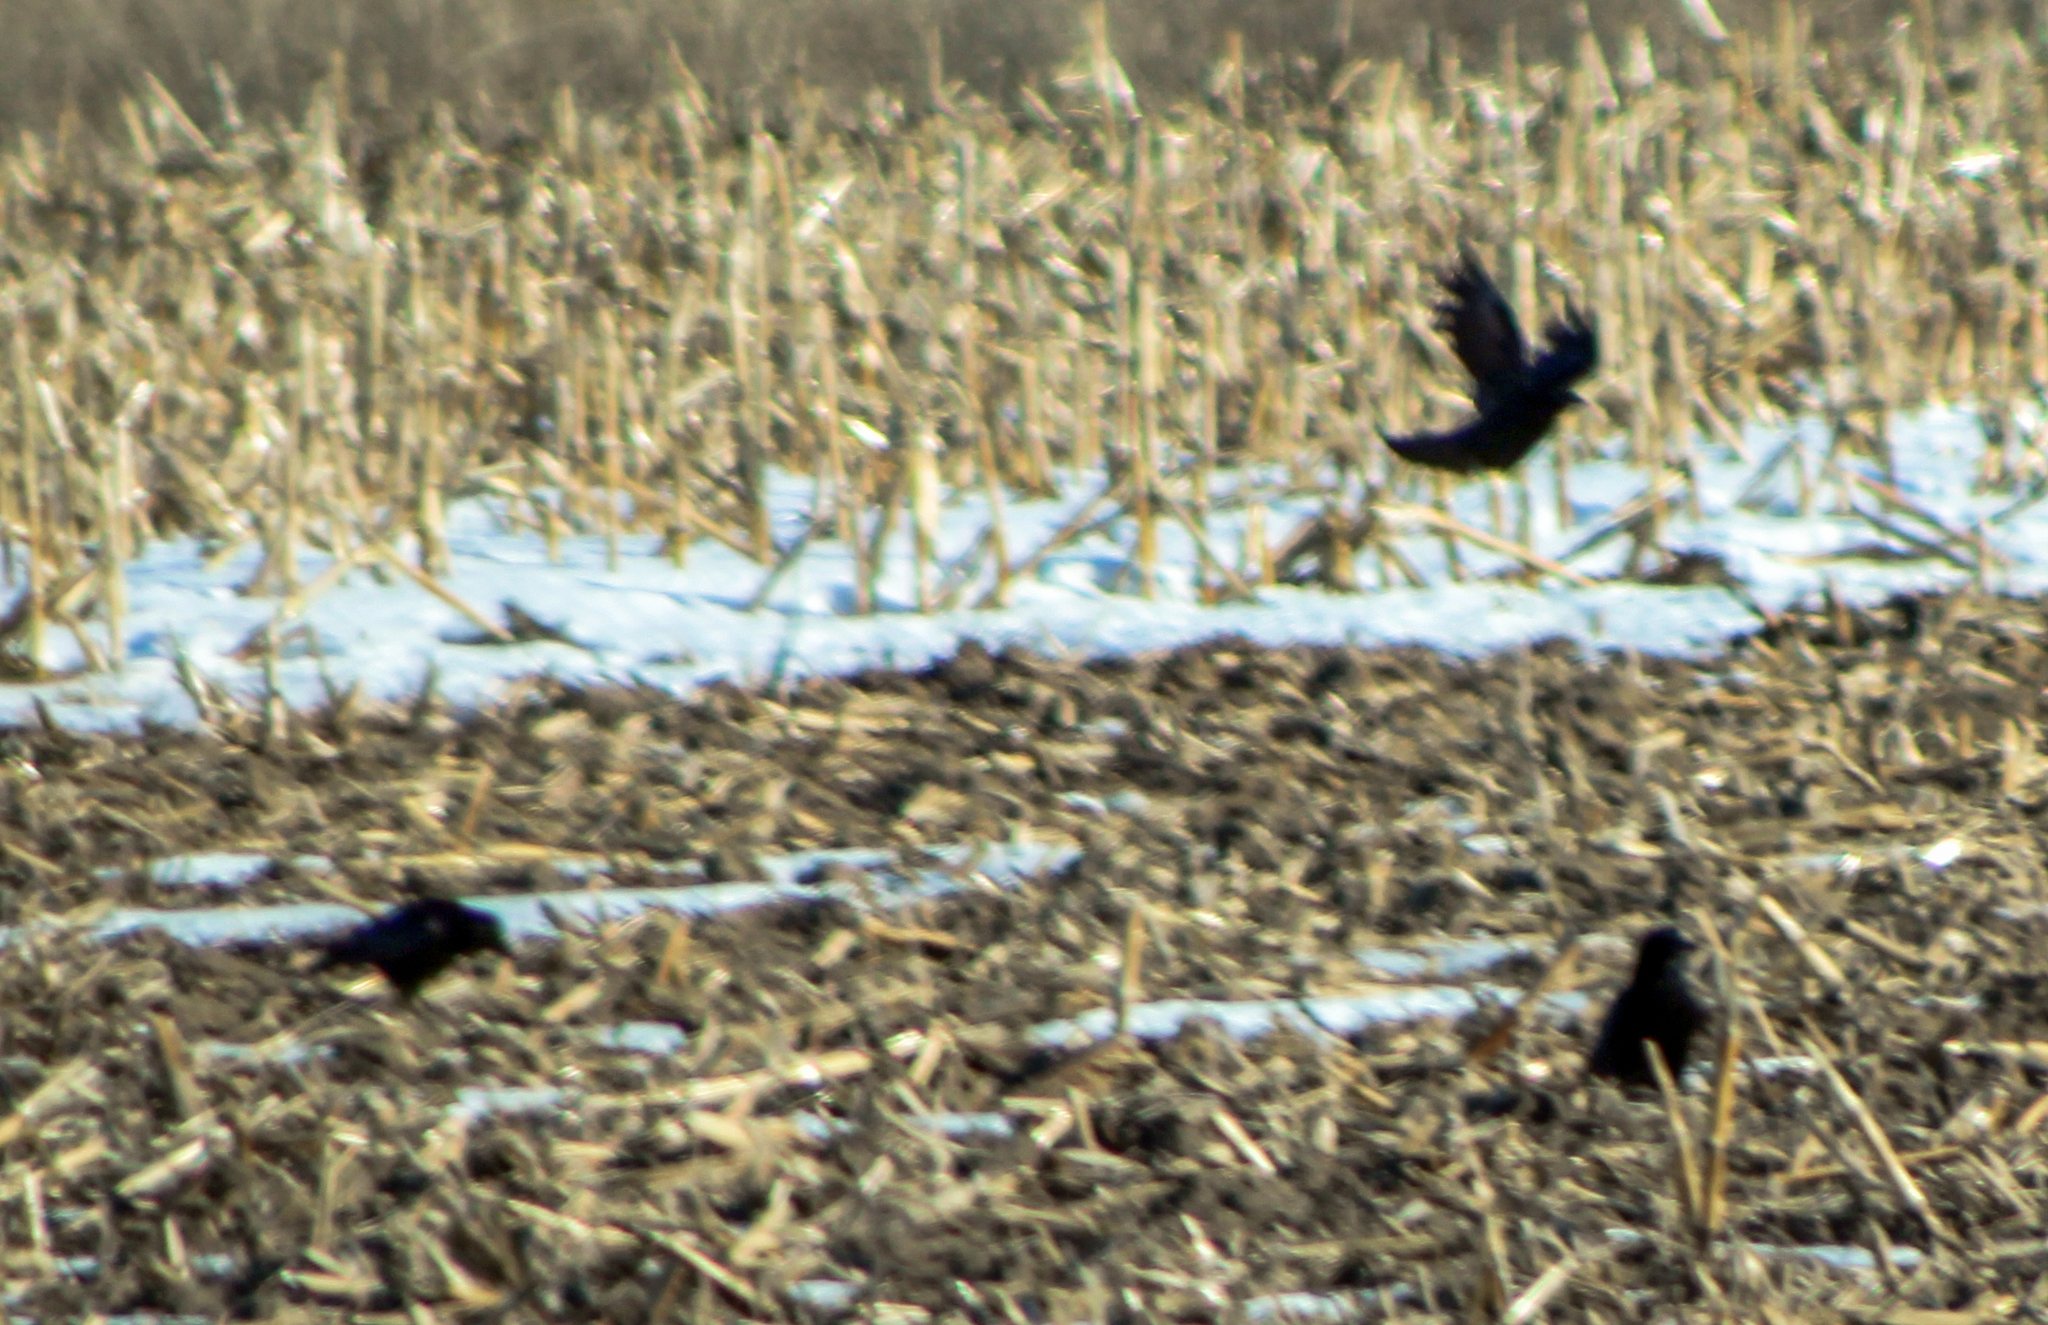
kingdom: Animalia
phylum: Chordata
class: Aves
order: Passeriformes
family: Corvidae
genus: Corvus
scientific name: Corvus brachyrhynchos
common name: American crow
